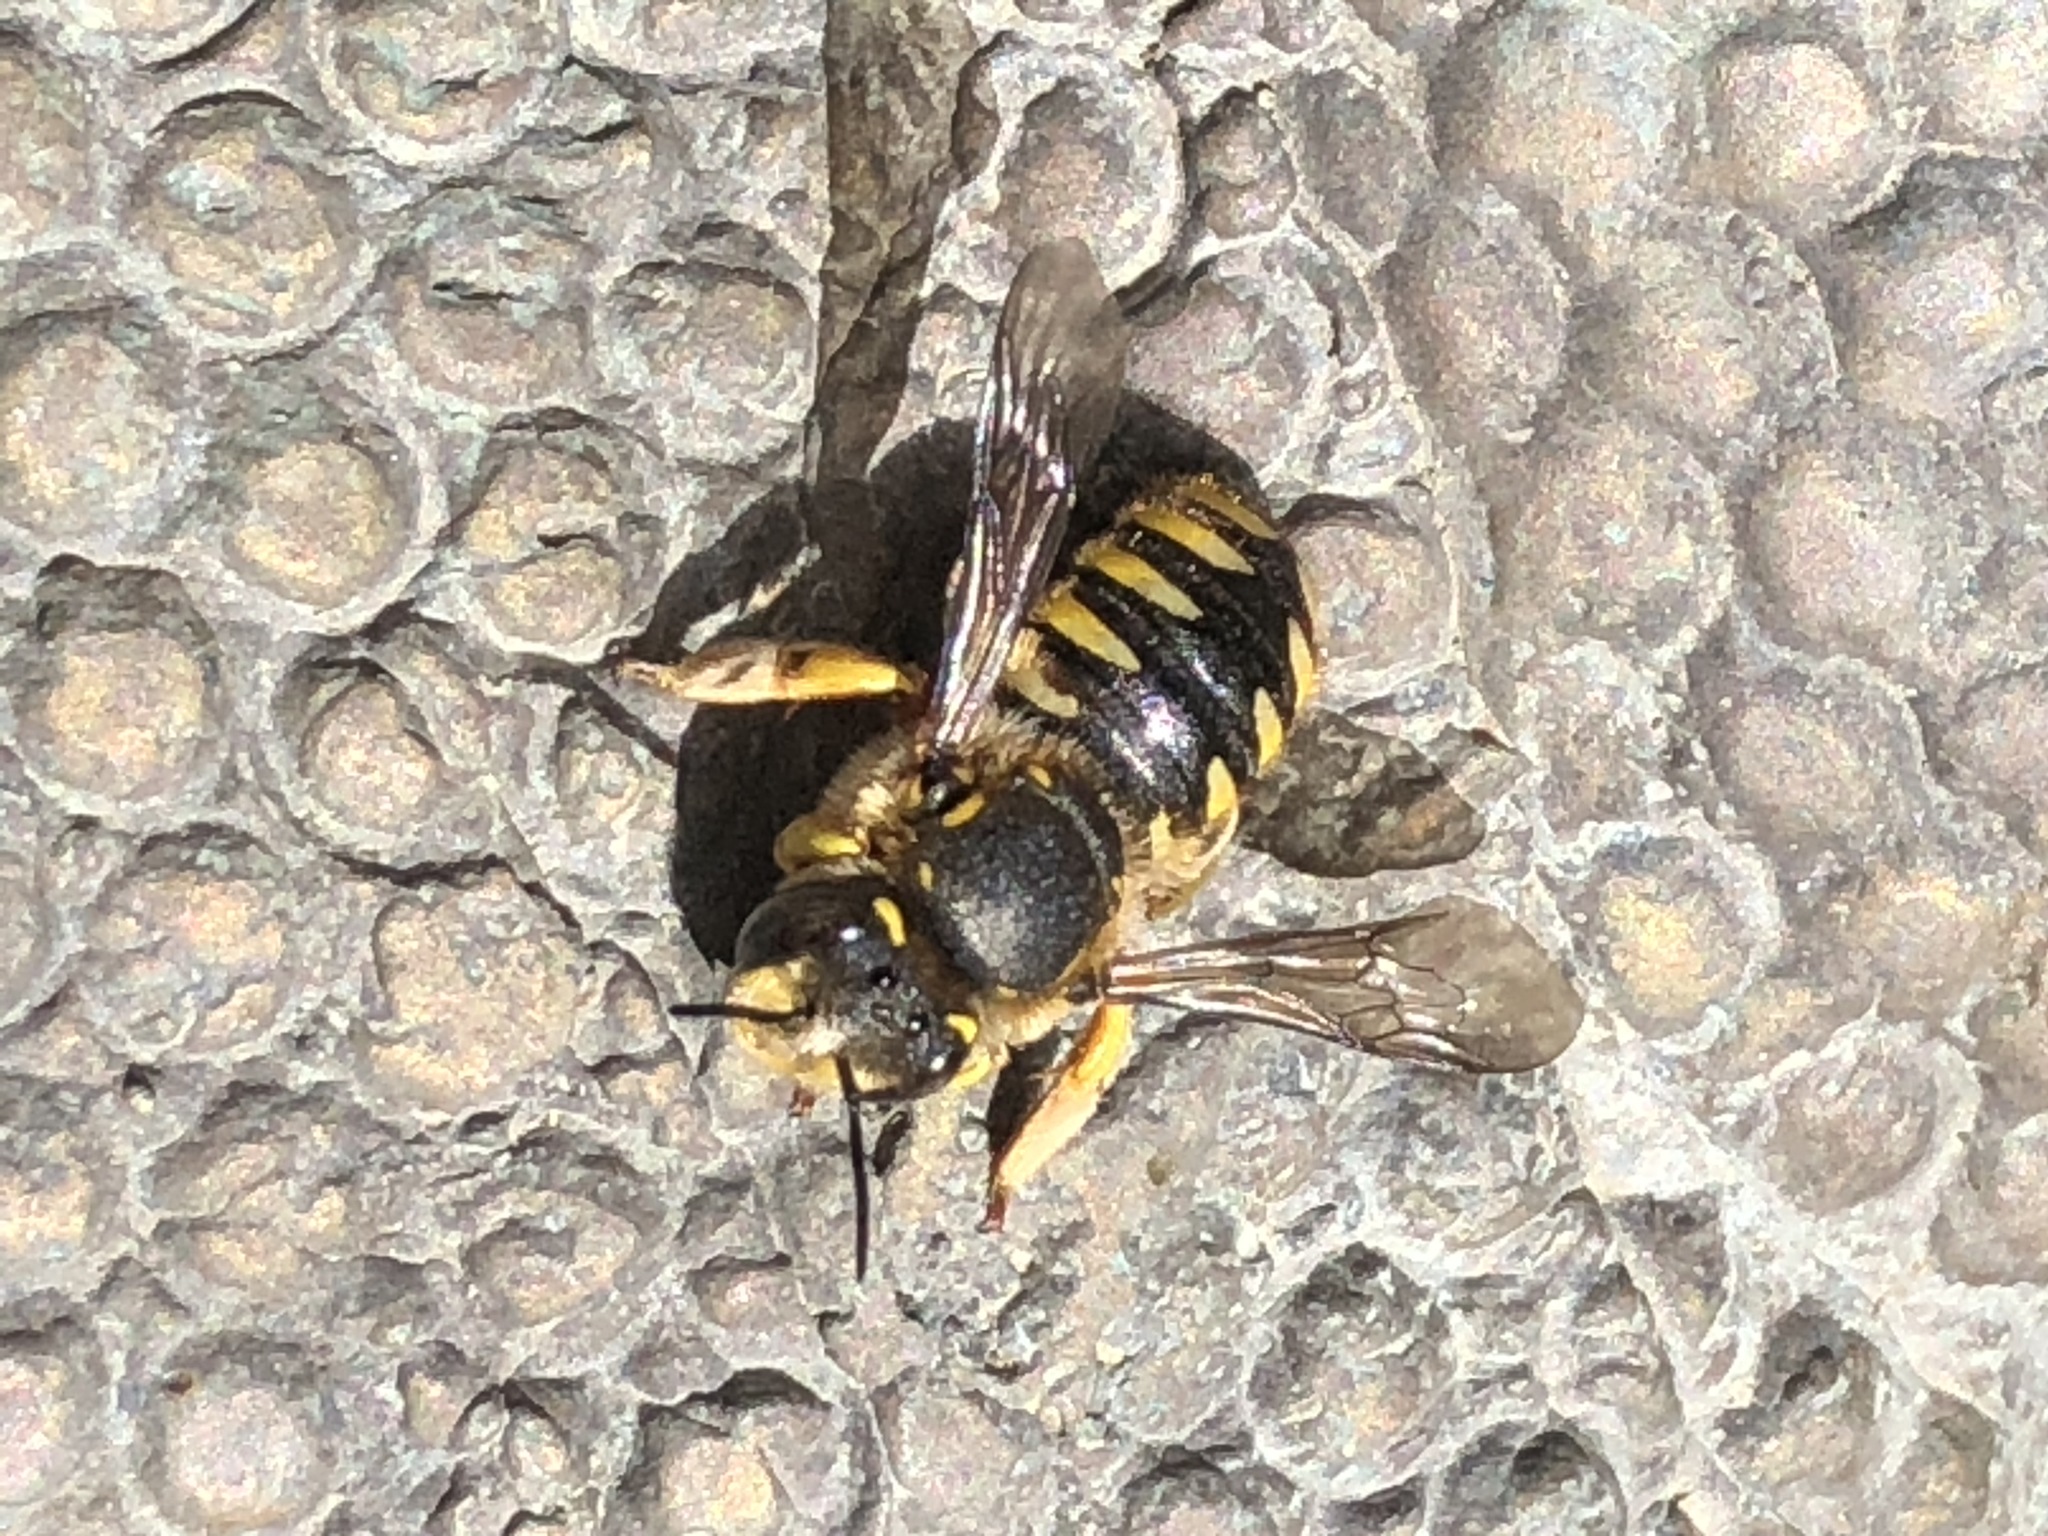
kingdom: Animalia
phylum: Arthropoda
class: Insecta
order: Hymenoptera
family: Megachilidae
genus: Anthidium
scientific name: Anthidium manicatum
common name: Wool carder bee
